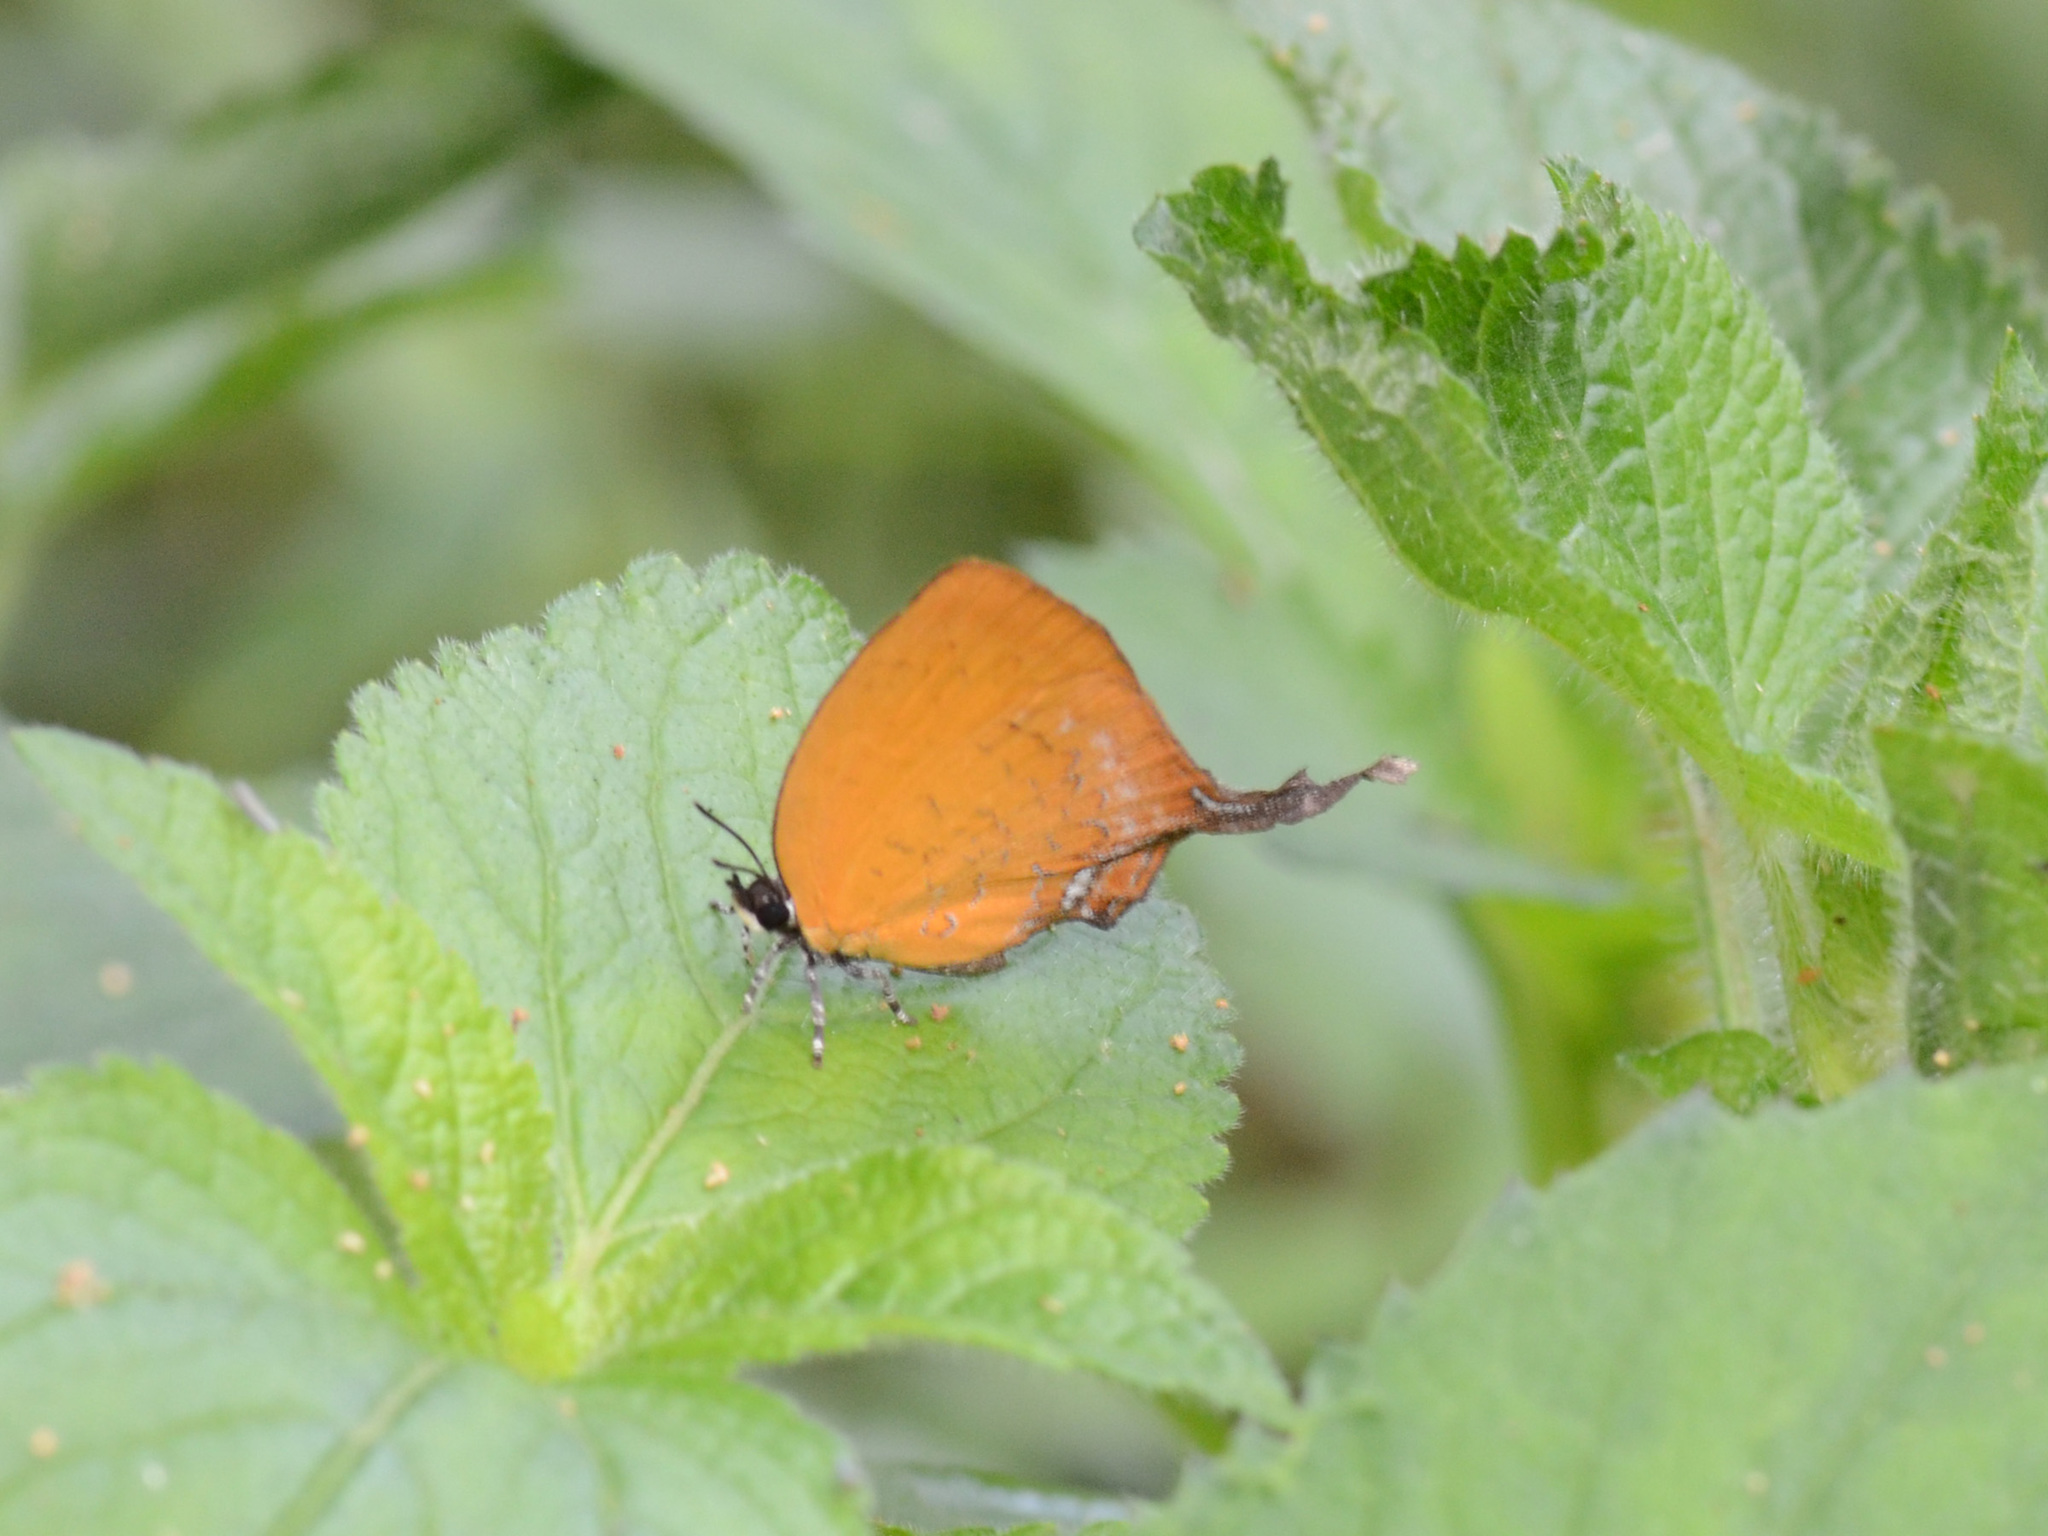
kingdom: Animalia
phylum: Arthropoda
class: Insecta
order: Lepidoptera
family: Lycaenidae
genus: Yasoda
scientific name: Yasoda pita
